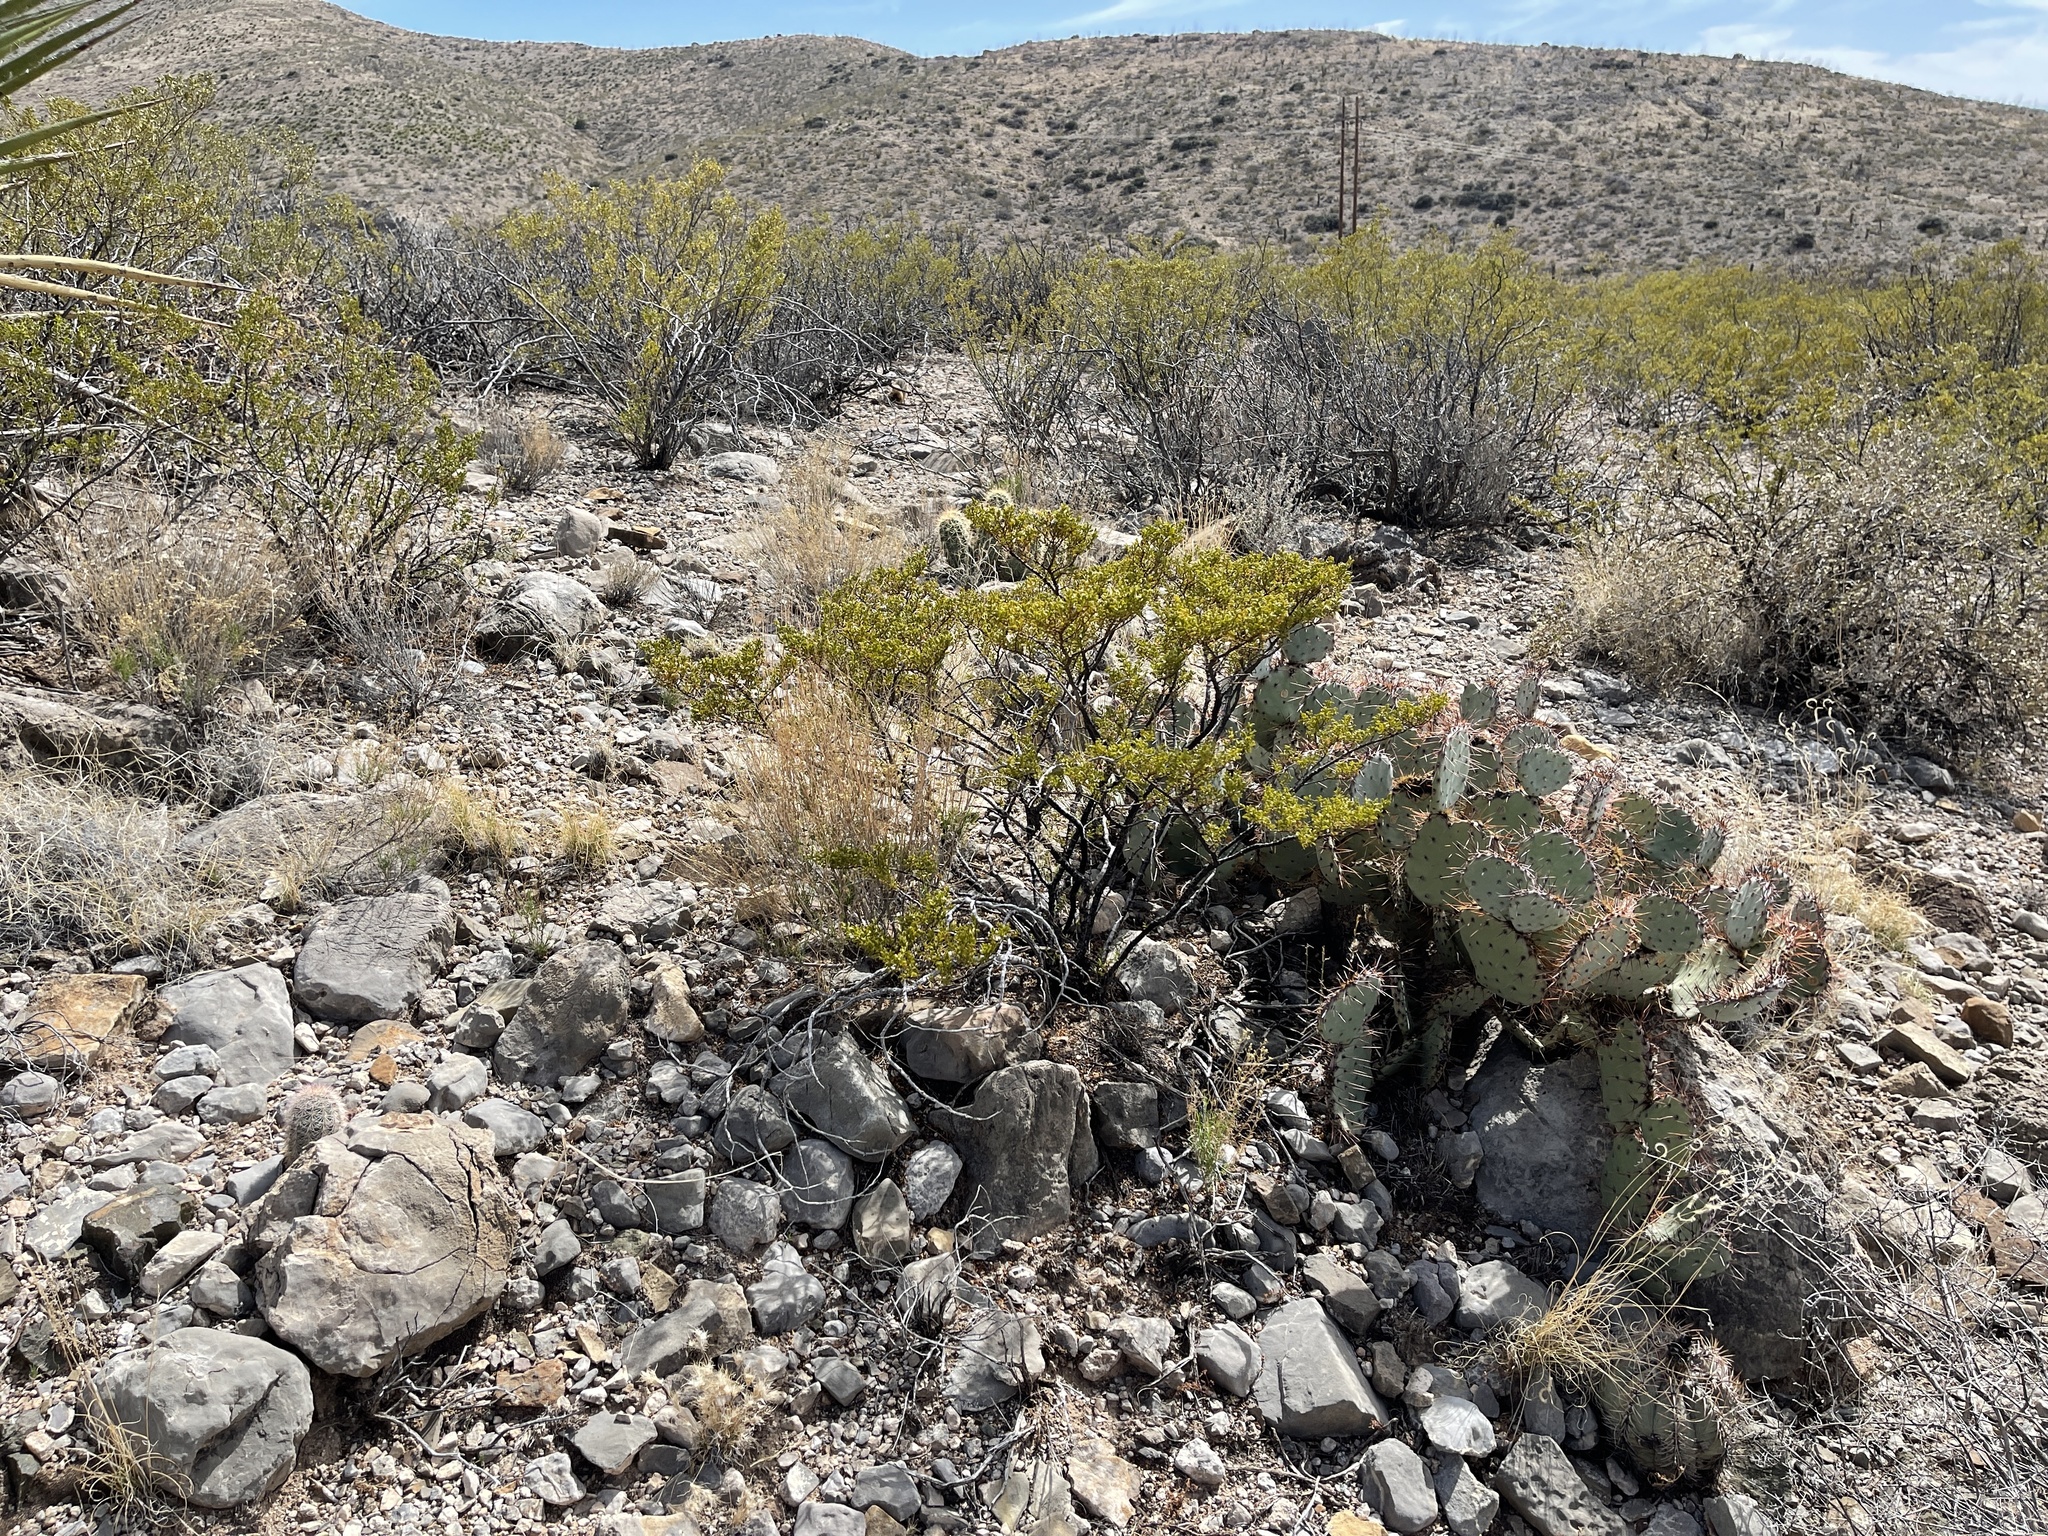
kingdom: Plantae
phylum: Tracheophyta
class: Magnoliopsida
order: Zygophyllales
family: Zygophyllaceae
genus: Larrea
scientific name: Larrea tridentata
